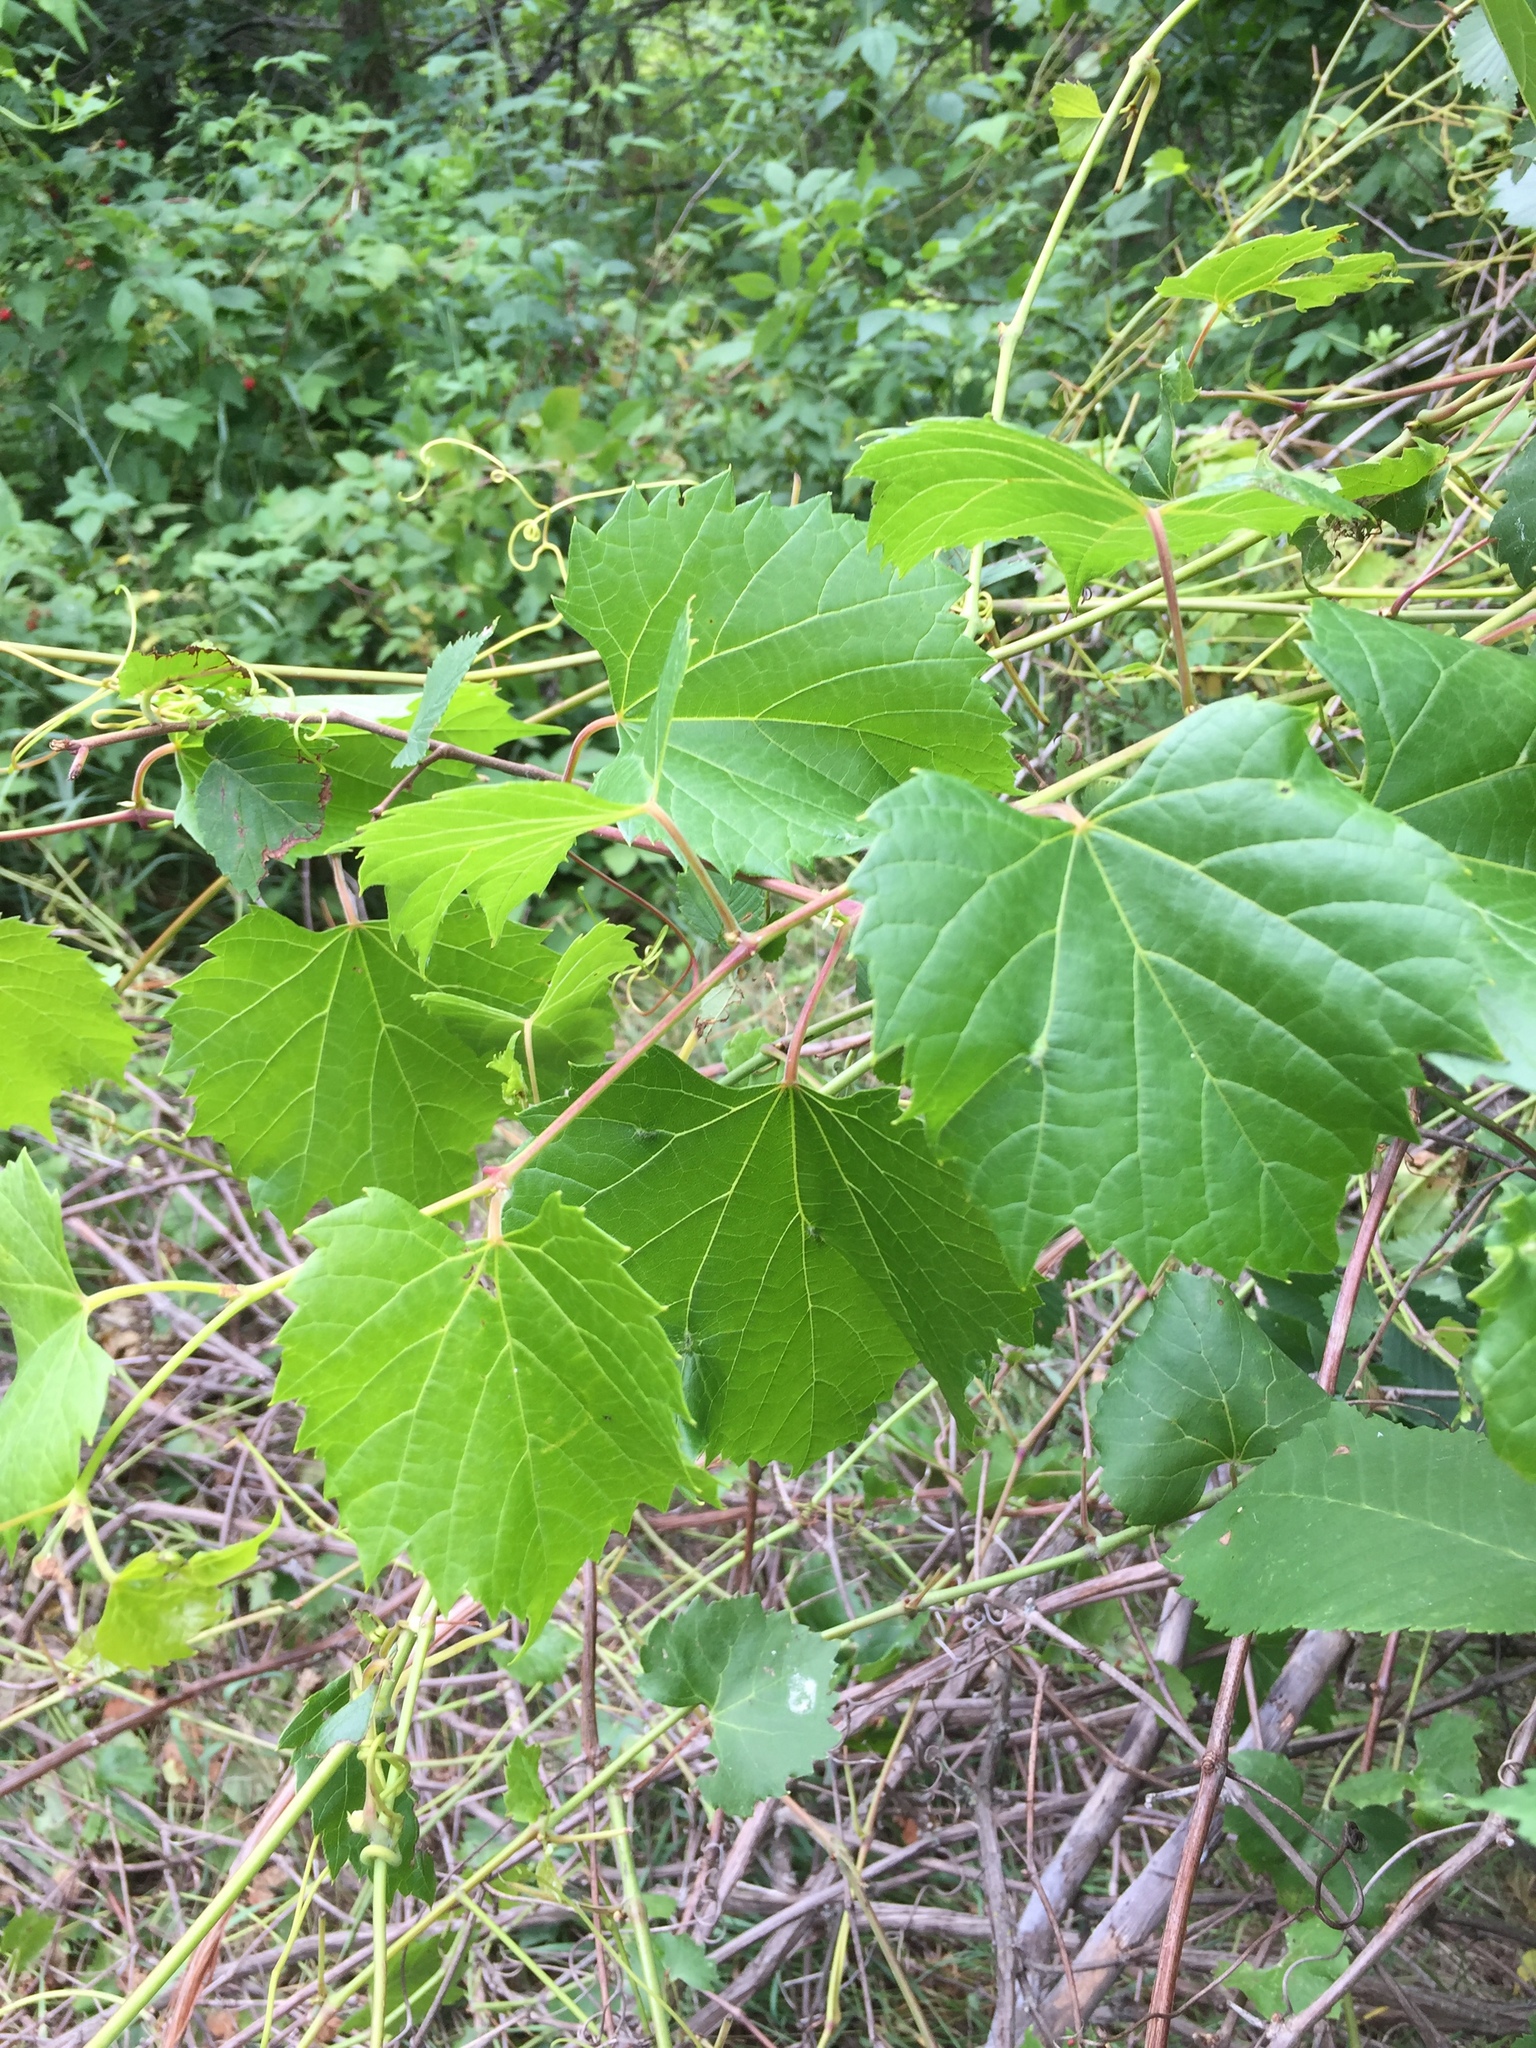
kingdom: Plantae
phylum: Tracheophyta
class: Magnoliopsida
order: Vitales
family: Vitaceae
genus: Vitis
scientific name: Vitis riparia
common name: Frost grape
